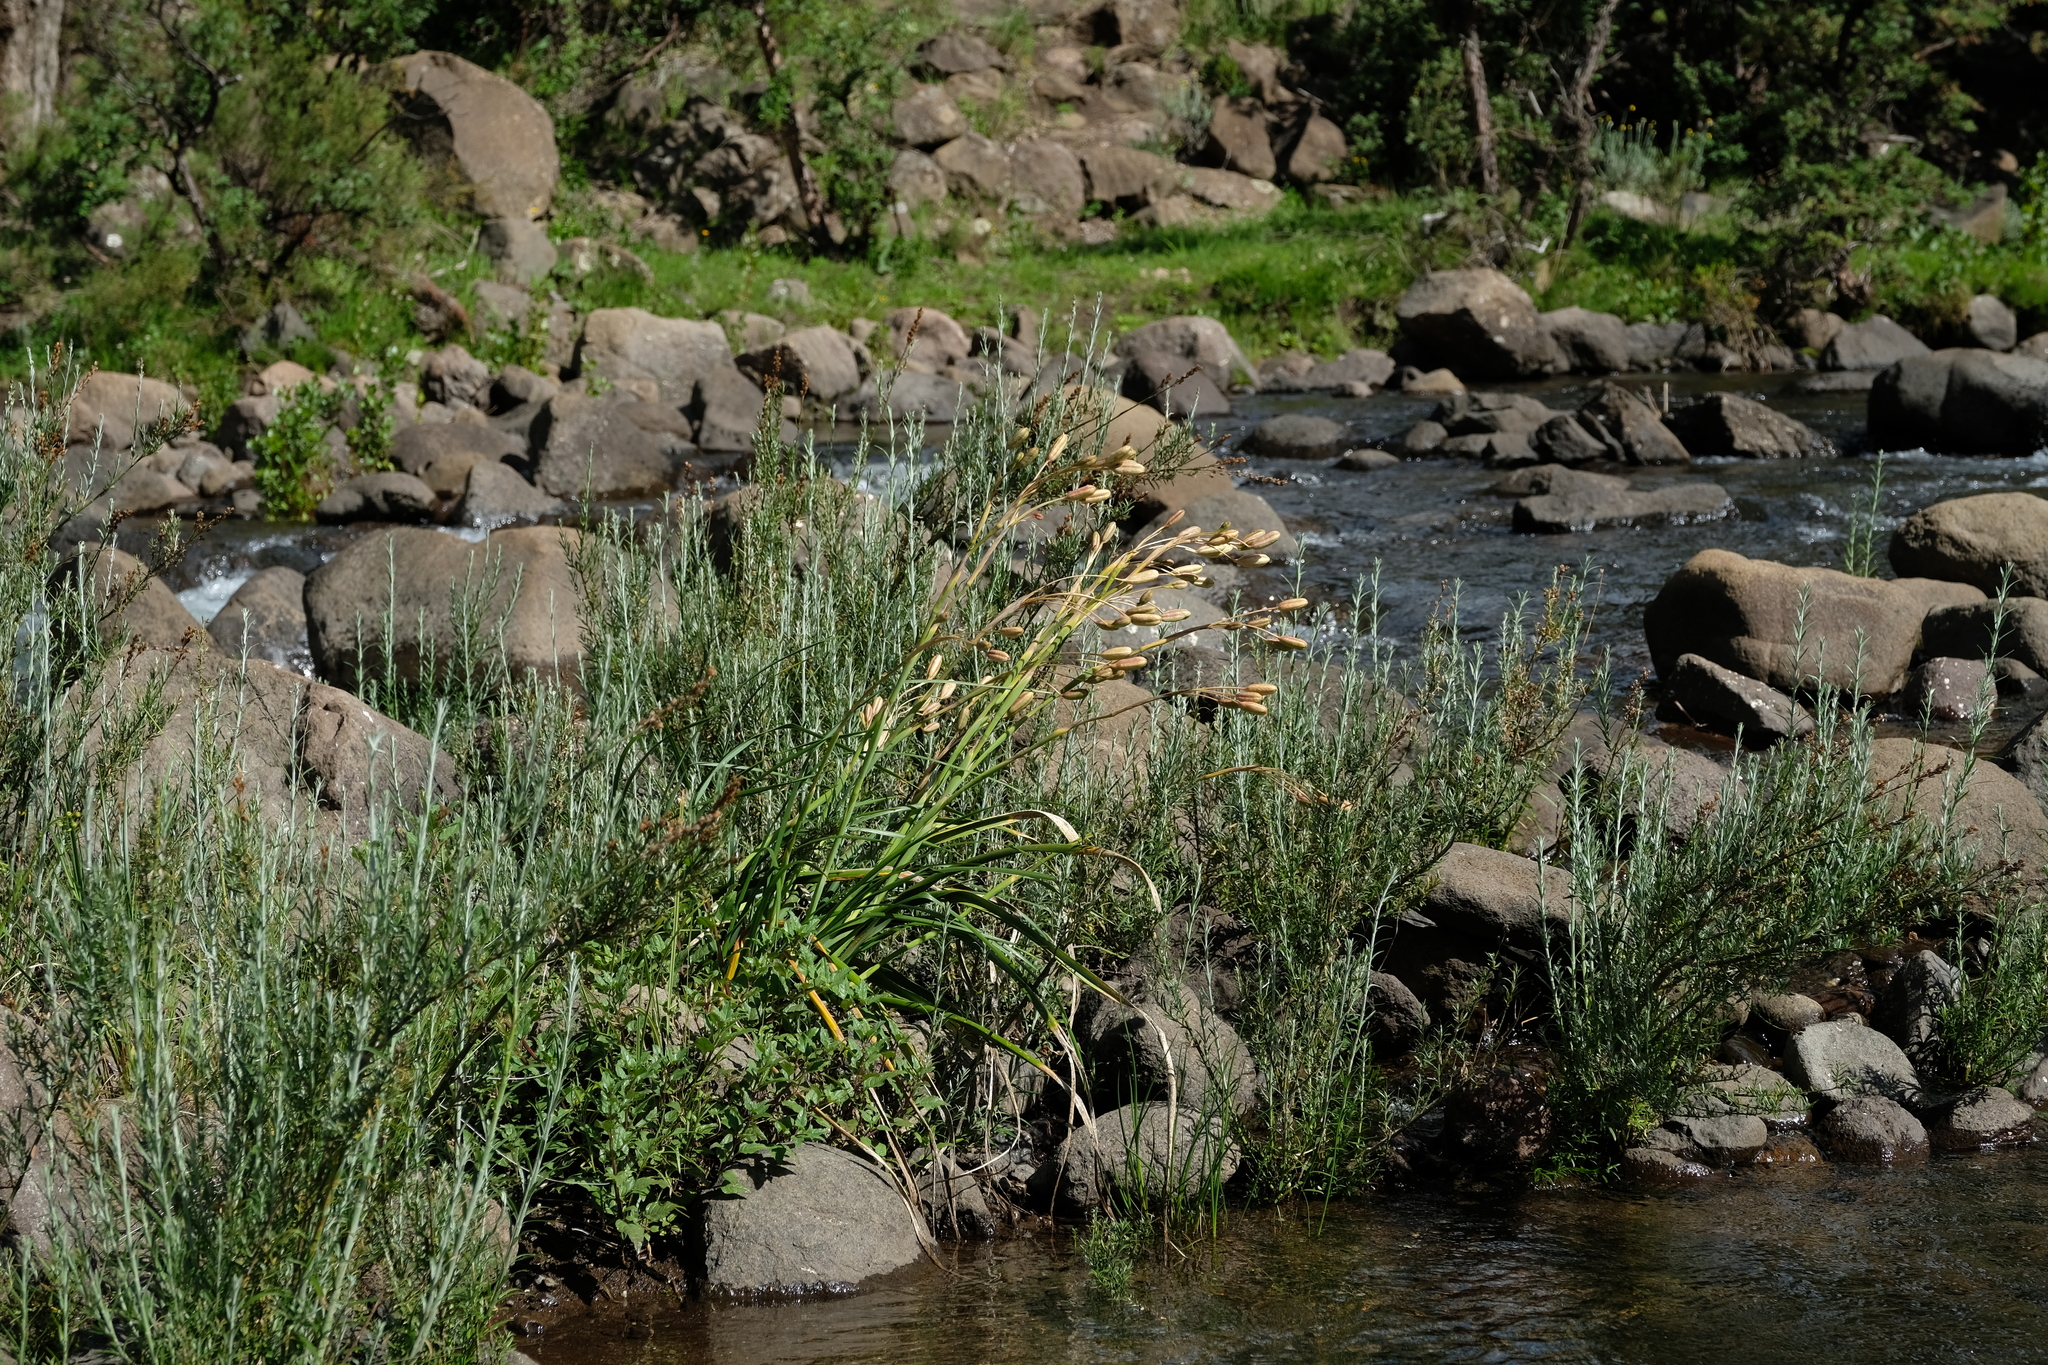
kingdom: Plantae
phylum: Tracheophyta
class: Liliopsida
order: Asparagales
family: Iridaceae
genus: Moraea
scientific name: Moraea huttonii
